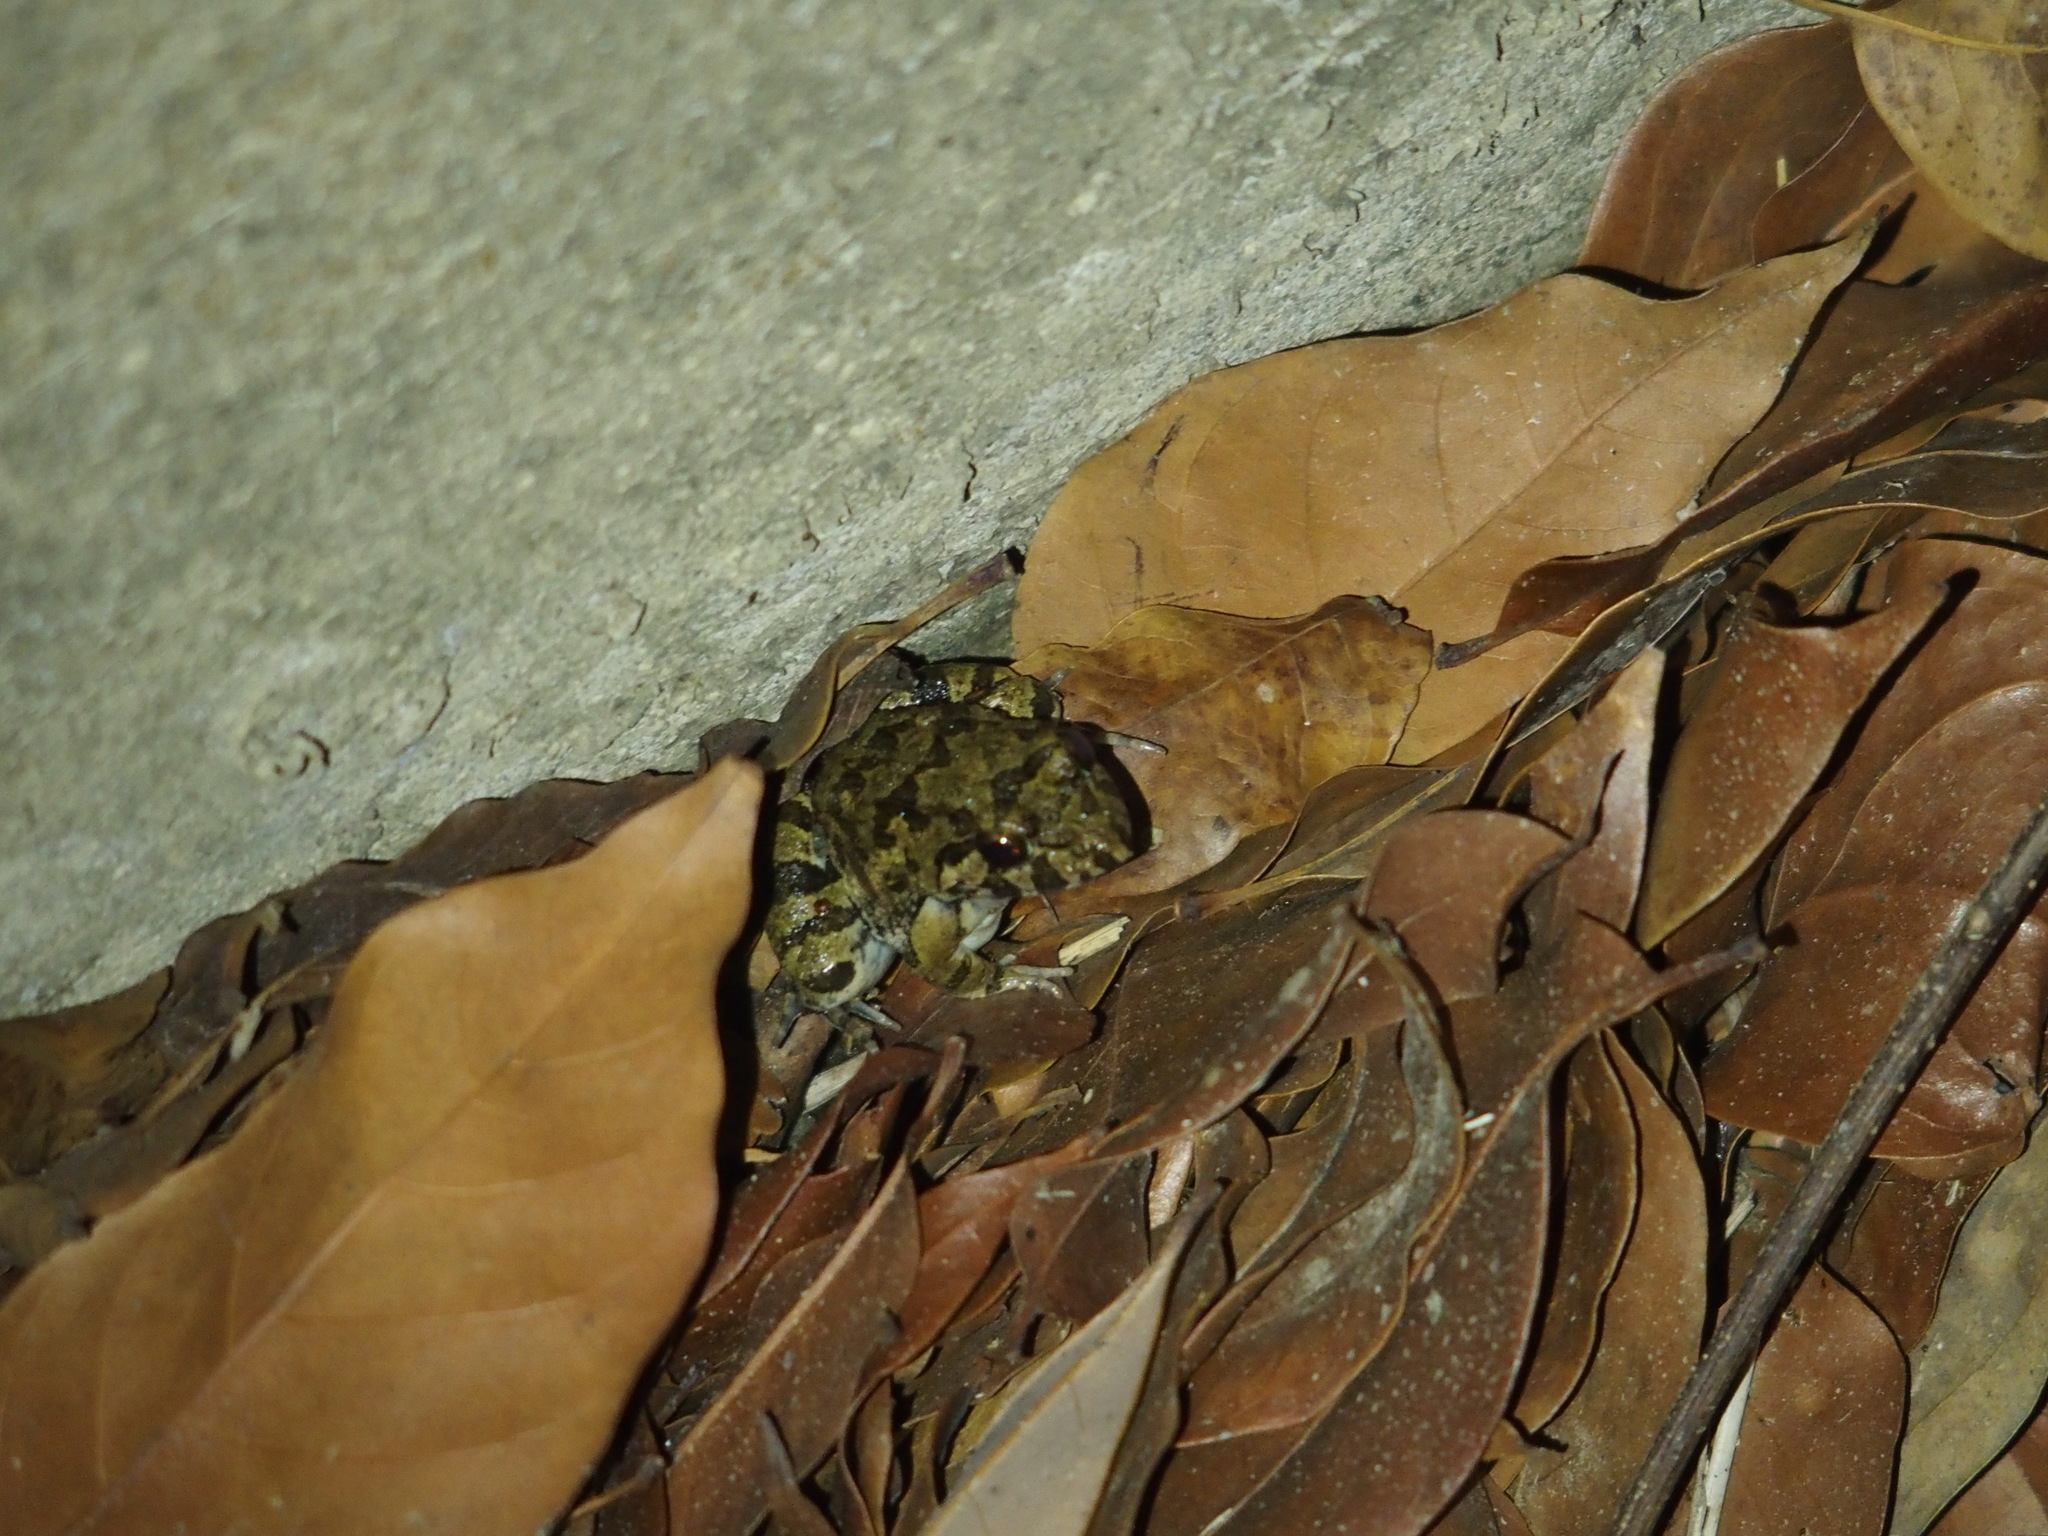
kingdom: Animalia
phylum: Chordata
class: Amphibia
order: Anura
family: Dicroglossidae
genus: Fejervarya
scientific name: Fejervarya limnocharis
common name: Asian grass frog/common pond frog/field frog/grass frog/indian rice frog
